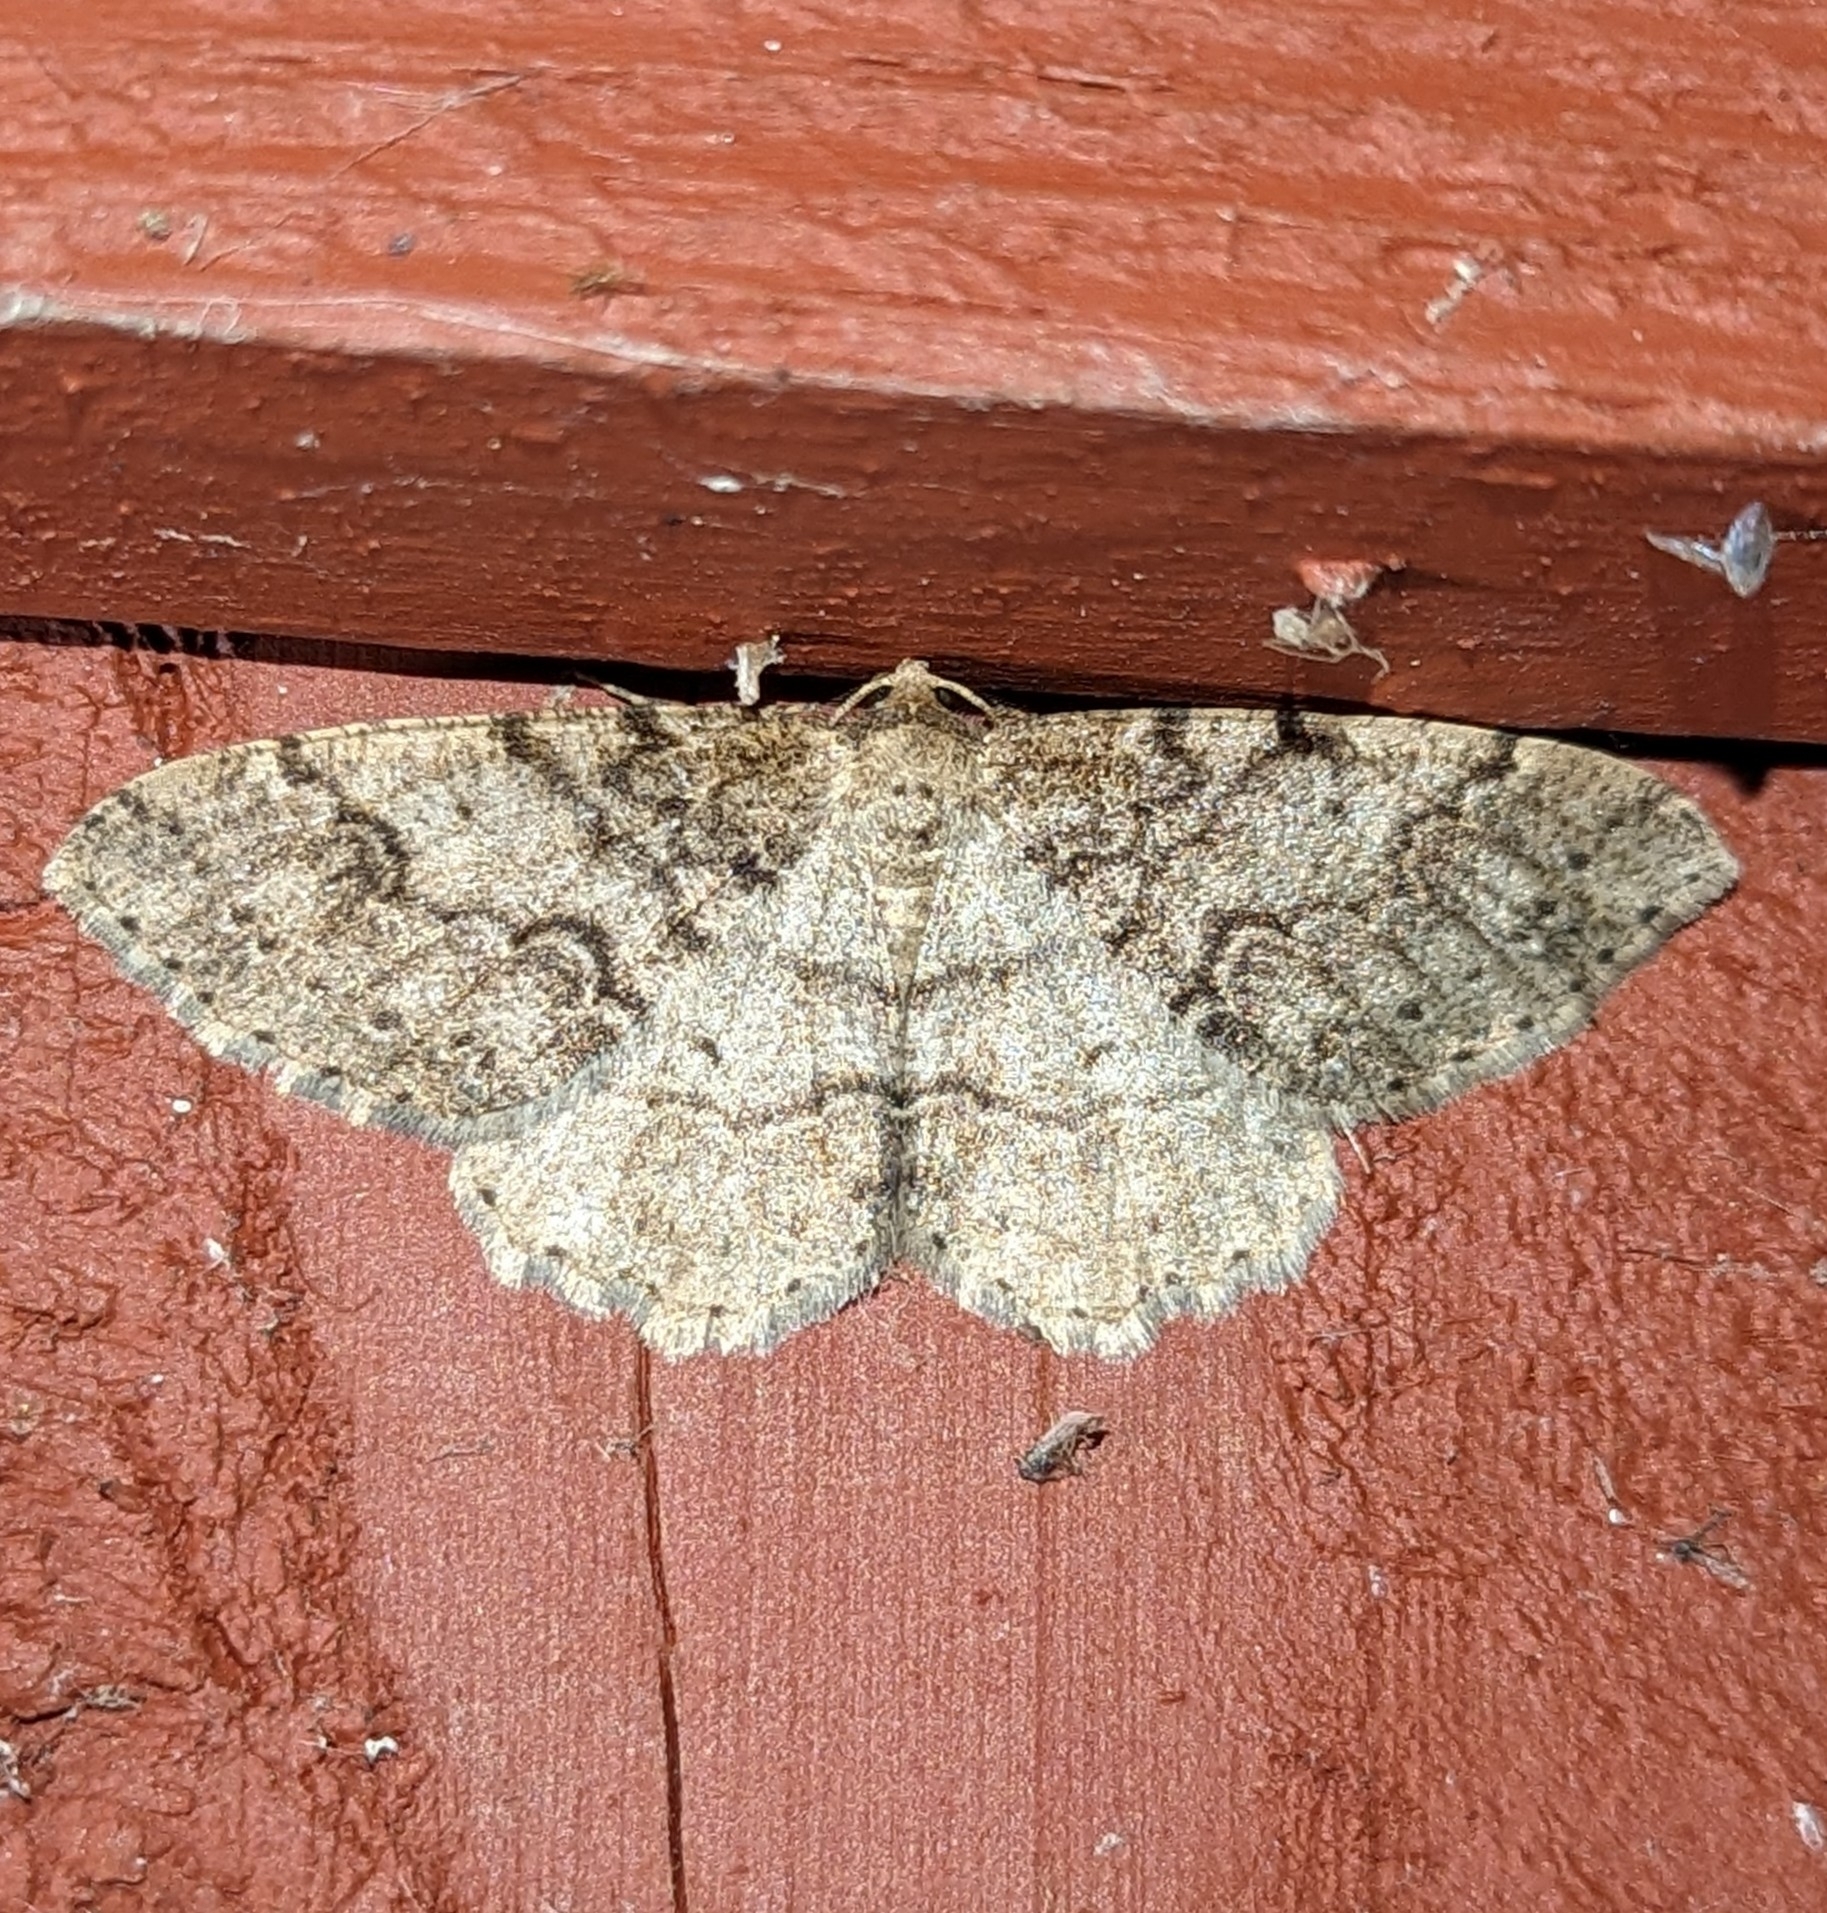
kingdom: Animalia
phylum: Arthropoda
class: Insecta
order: Lepidoptera
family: Geometridae
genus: Melanolophia
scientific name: Melanolophia imitata
